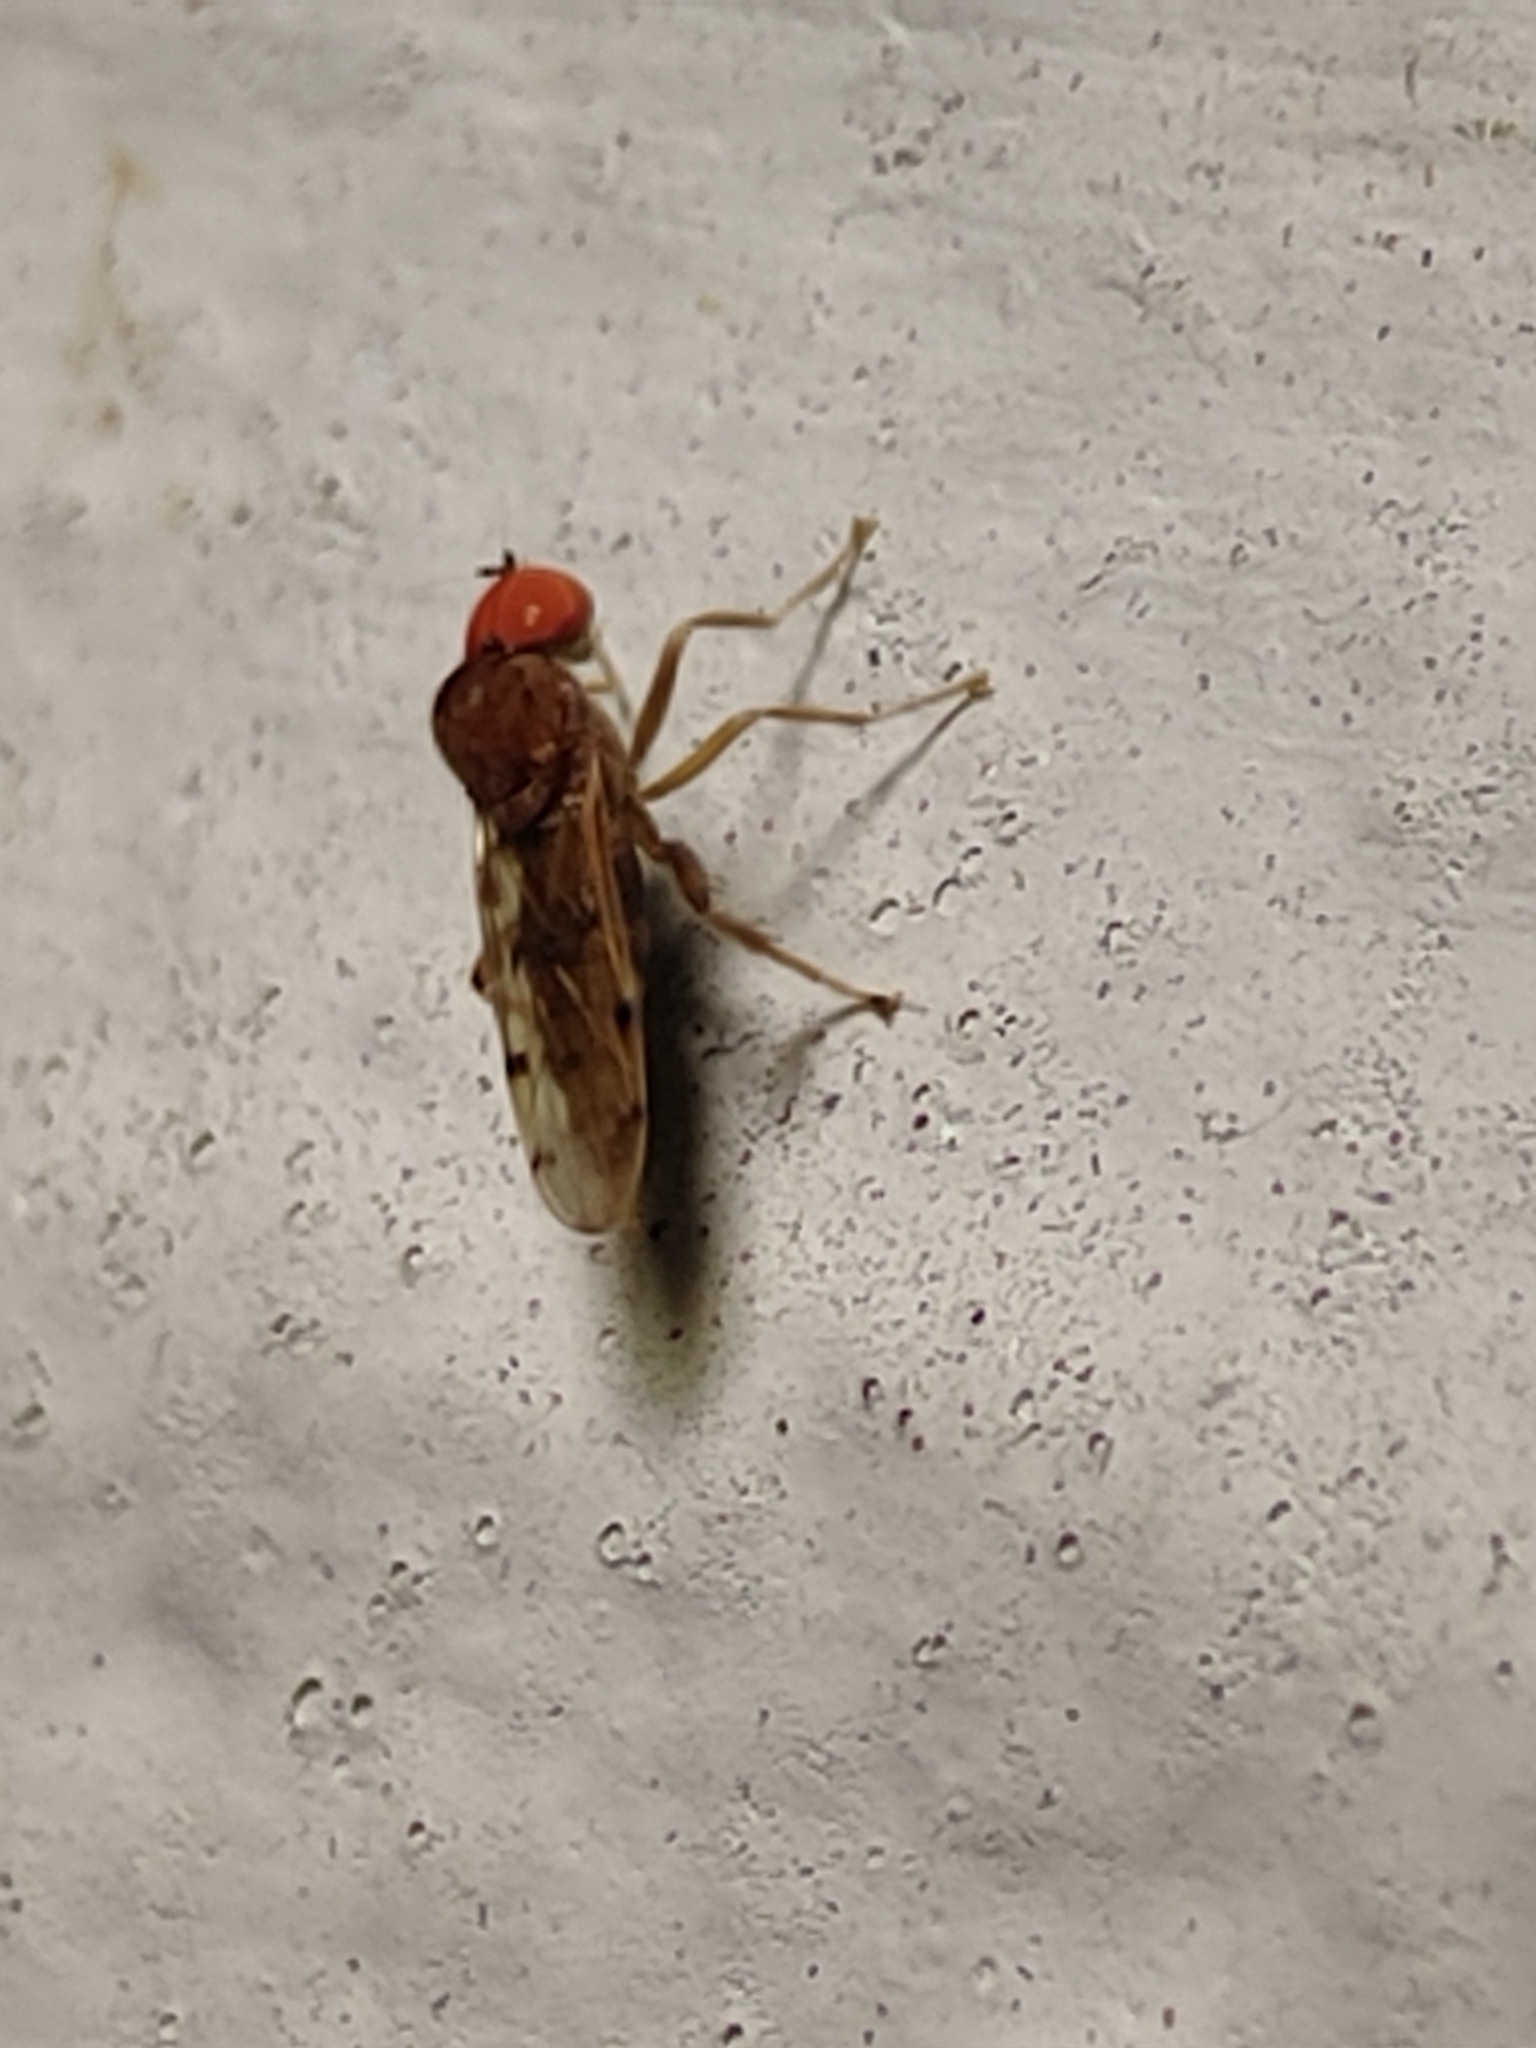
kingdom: Animalia
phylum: Arthropoda
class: Insecta
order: Diptera
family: Hybotidae
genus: Syneches
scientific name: Syneches simplex
